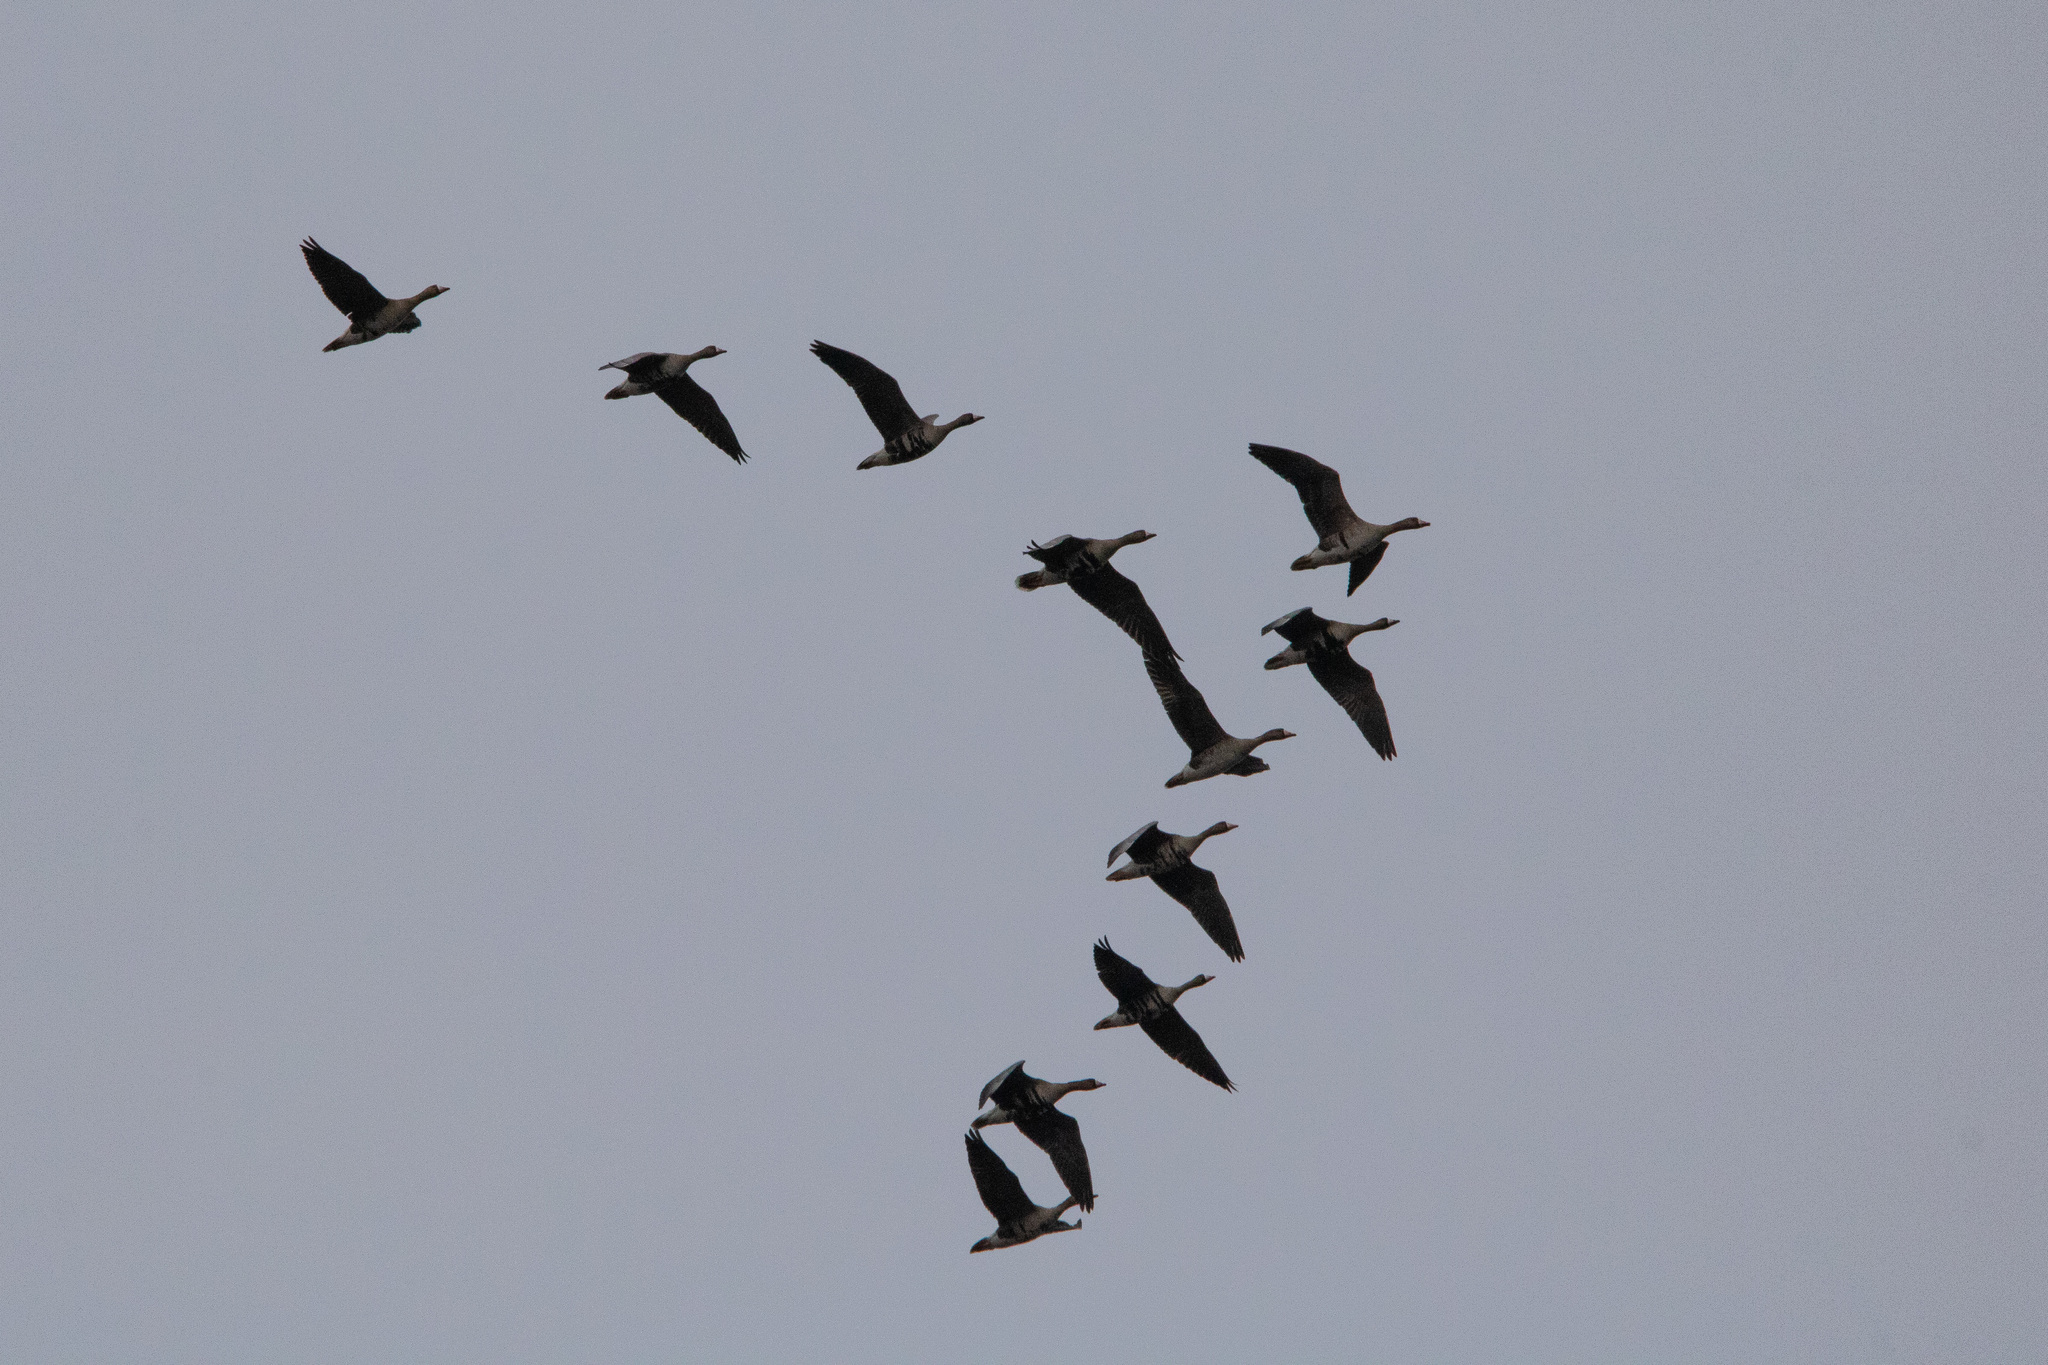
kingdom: Animalia
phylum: Chordata
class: Aves
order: Anseriformes
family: Anatidae
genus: Anser
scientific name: Anser albifrons
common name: Greater white-fronted goose
